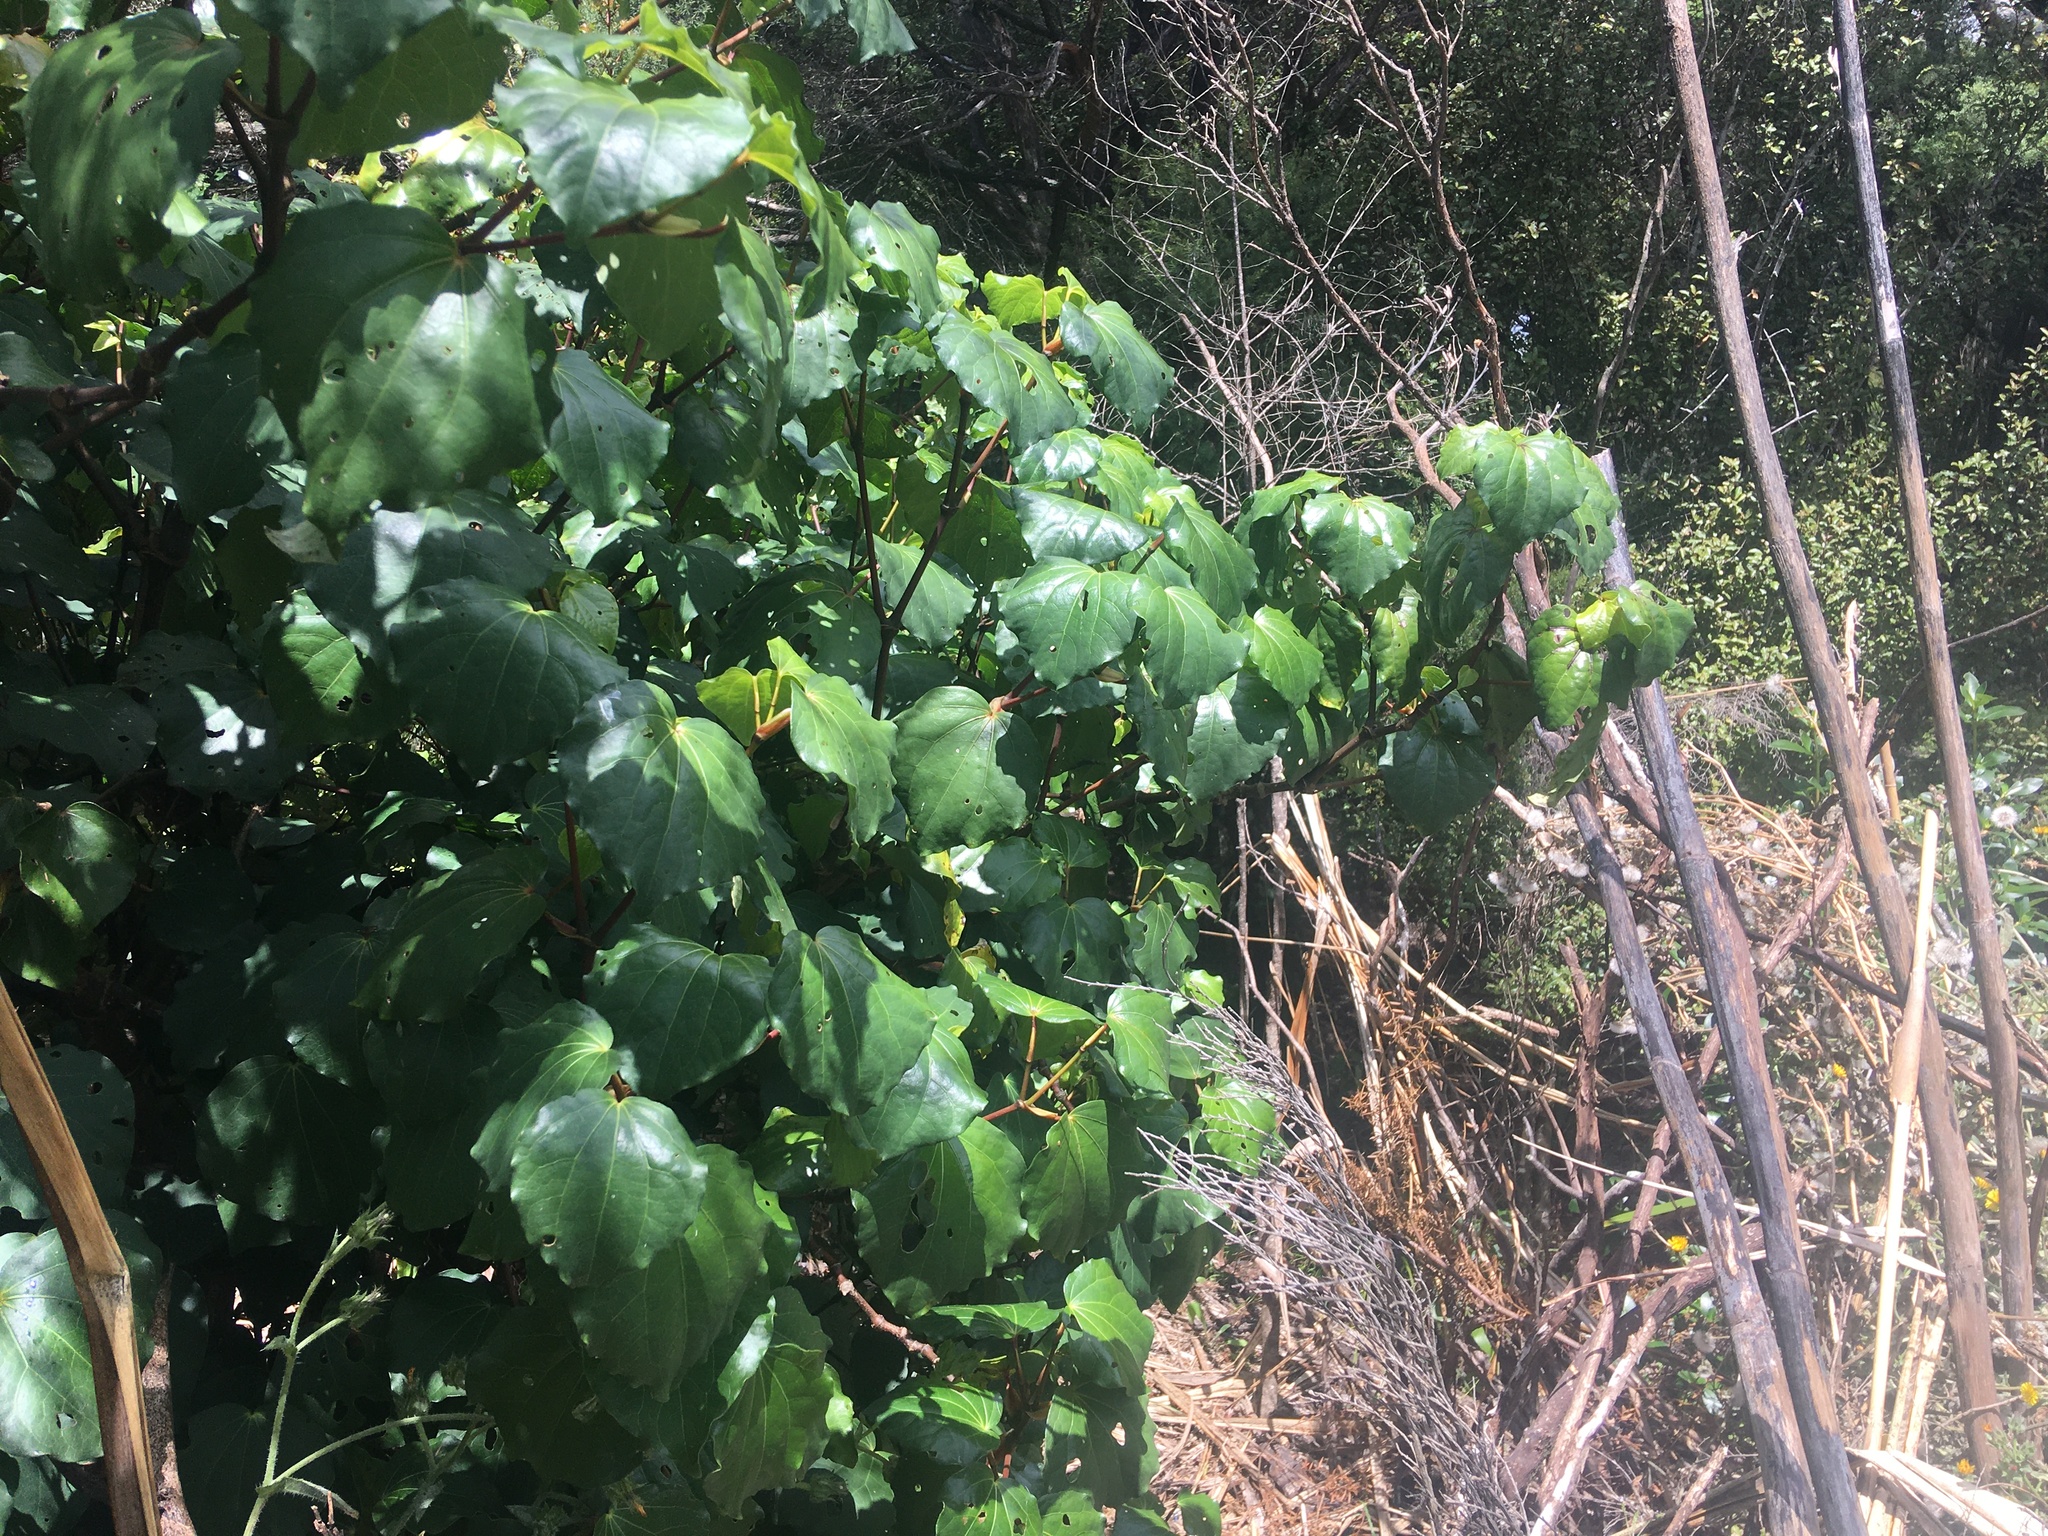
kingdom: Plantae
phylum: Tracheophyta
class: Magnoliopsida
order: Piperales
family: Piperaceae
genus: Macropiper
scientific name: Macropiper excelsum
